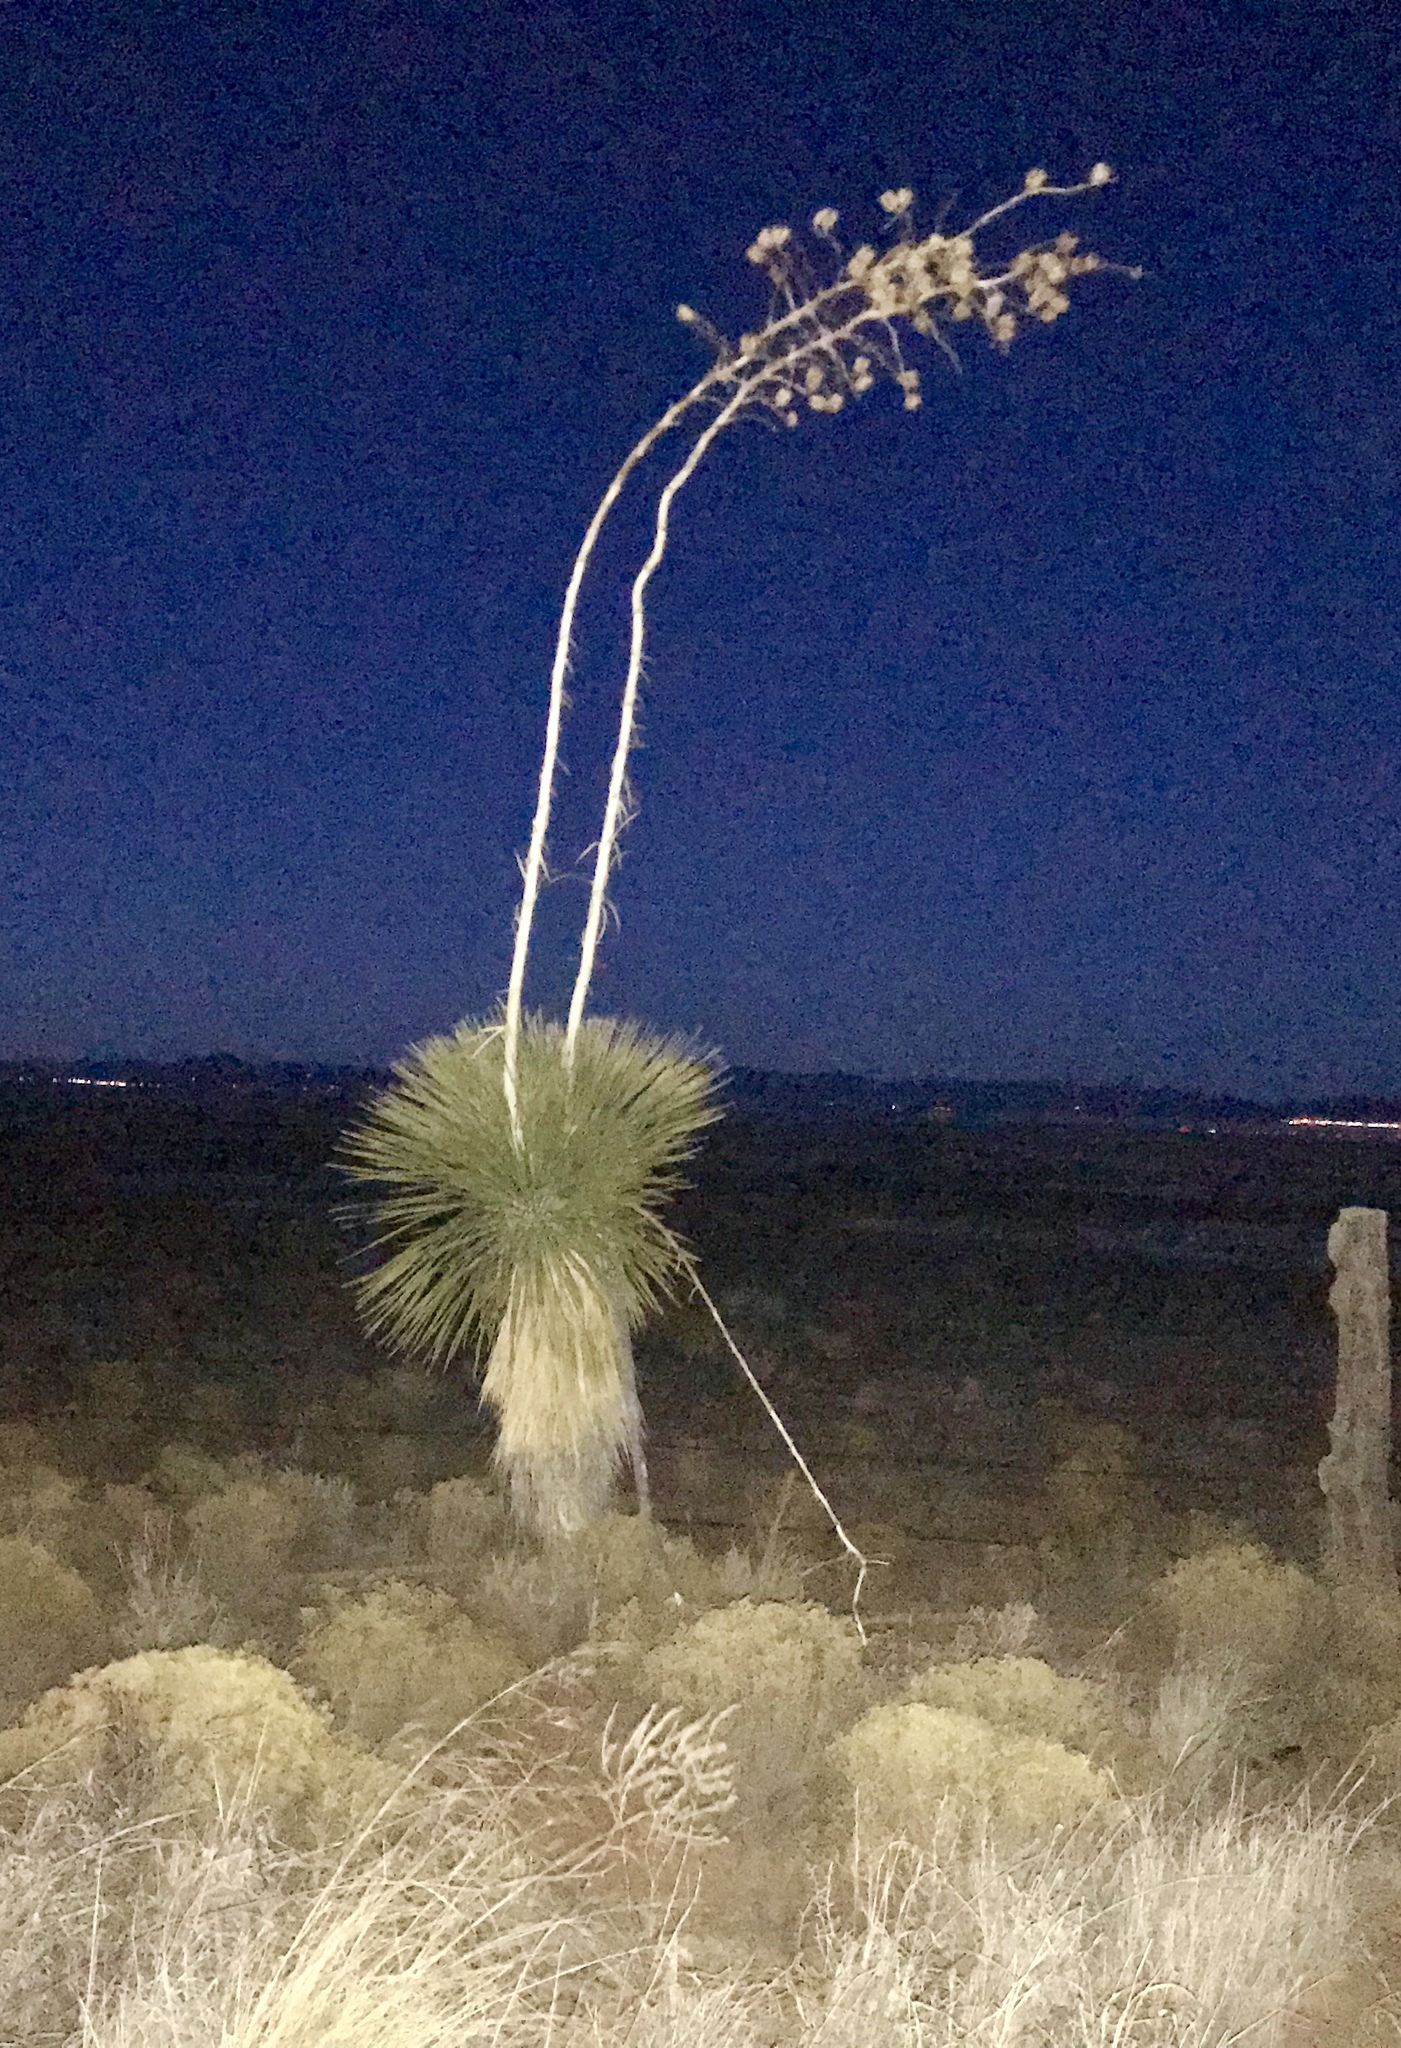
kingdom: Plantae
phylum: Tracheophyta
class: Liliopsida
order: Asparagales
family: Asparagaceae
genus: Yucca
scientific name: Yucca elata
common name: Palmella
